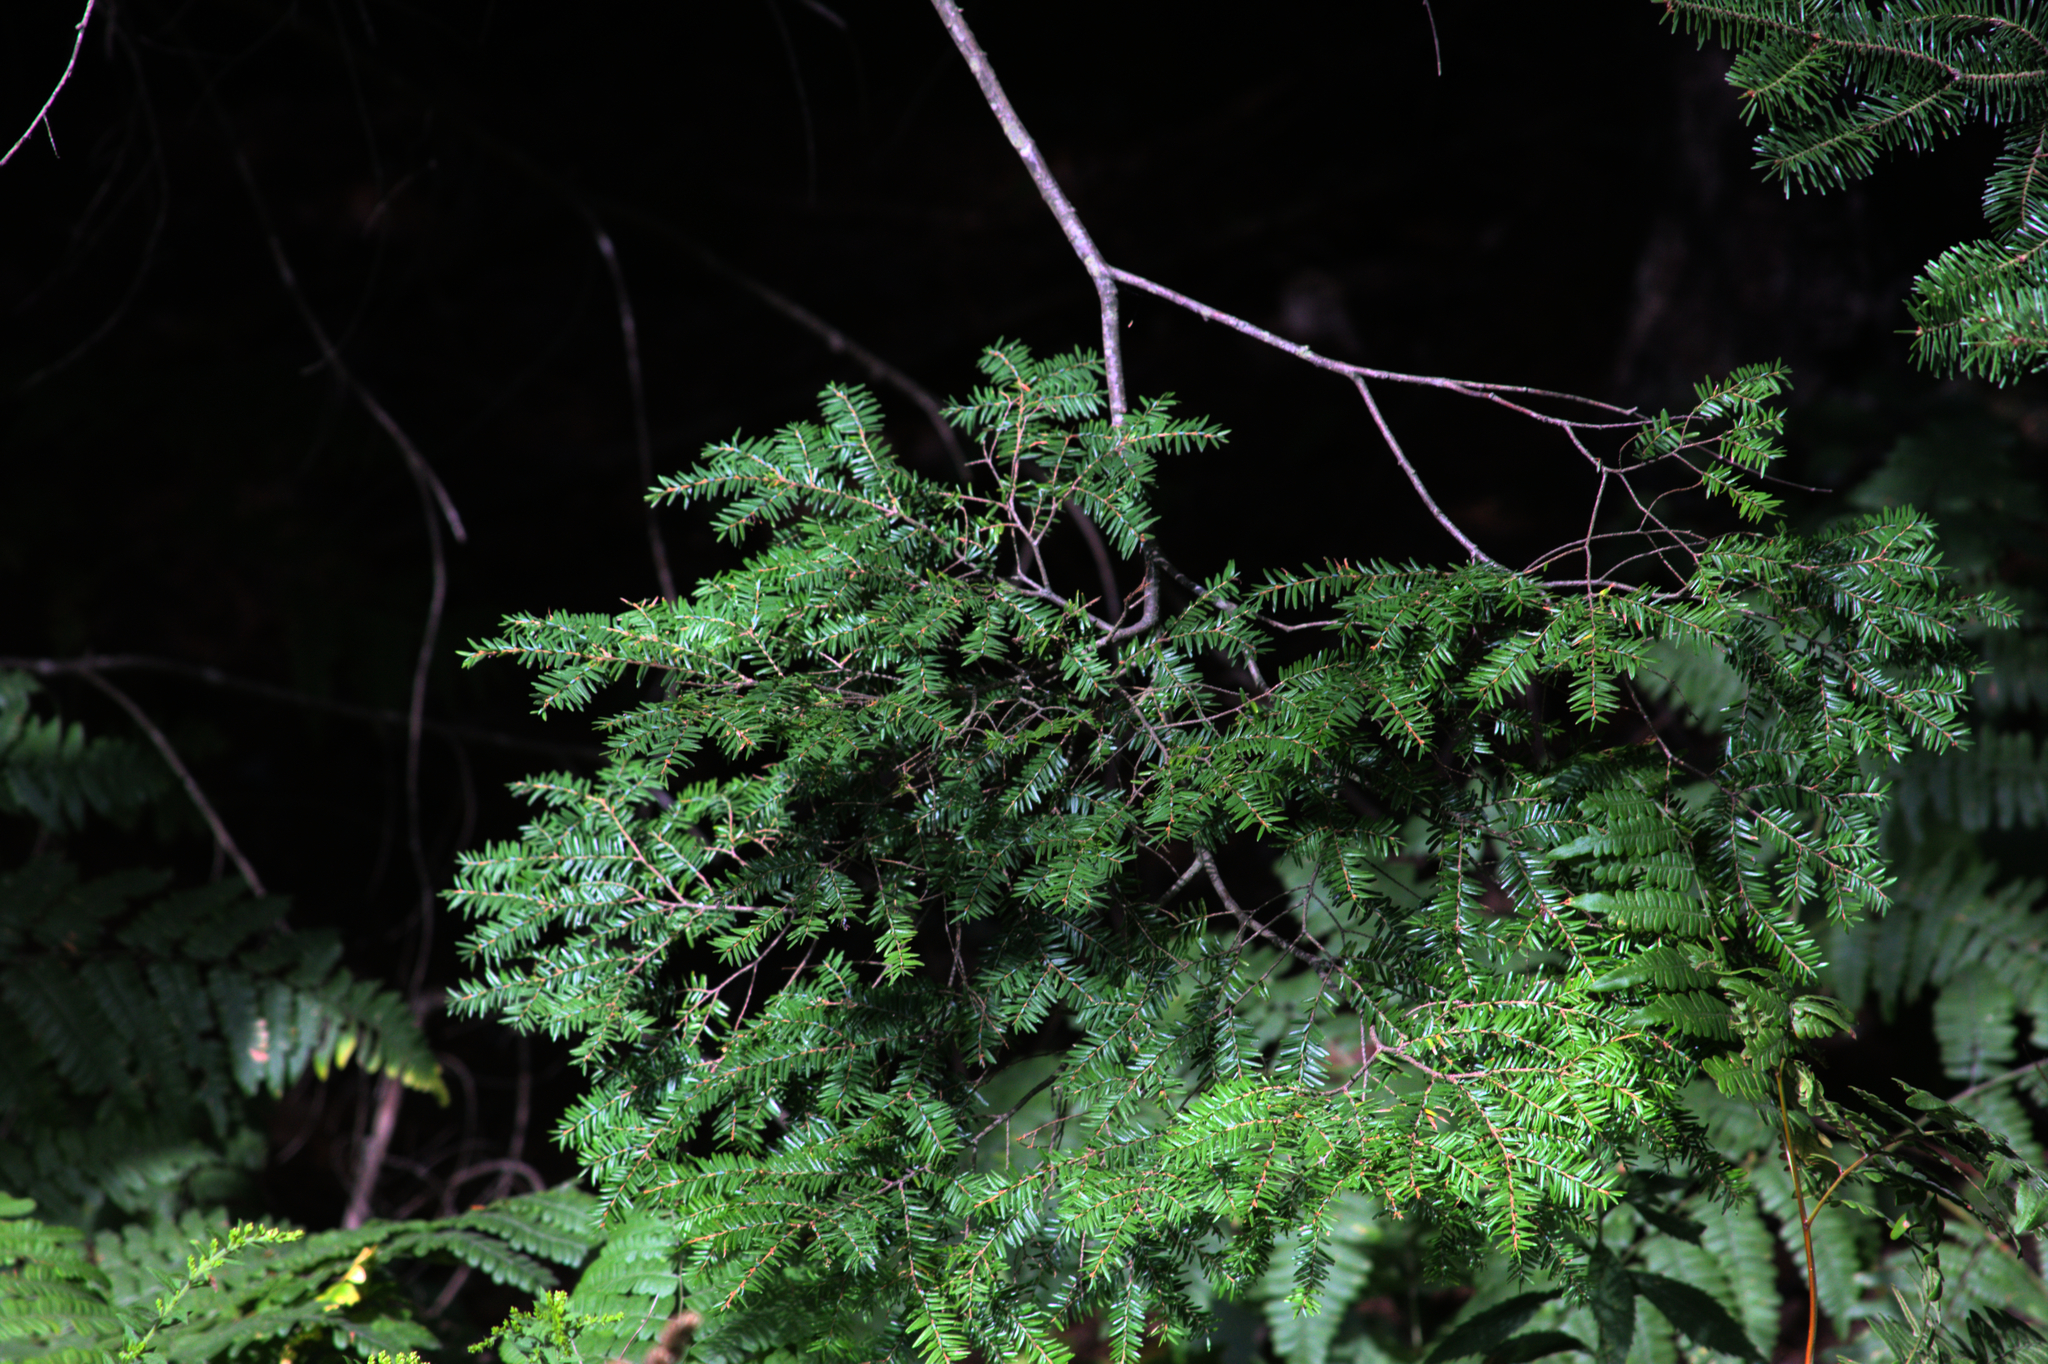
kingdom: Plantae
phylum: Tracheophyta
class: Pinopsida
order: Pinales
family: Pinaceae
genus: Tsuga
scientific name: Tsuga canadensis
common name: Eastern hemlock
